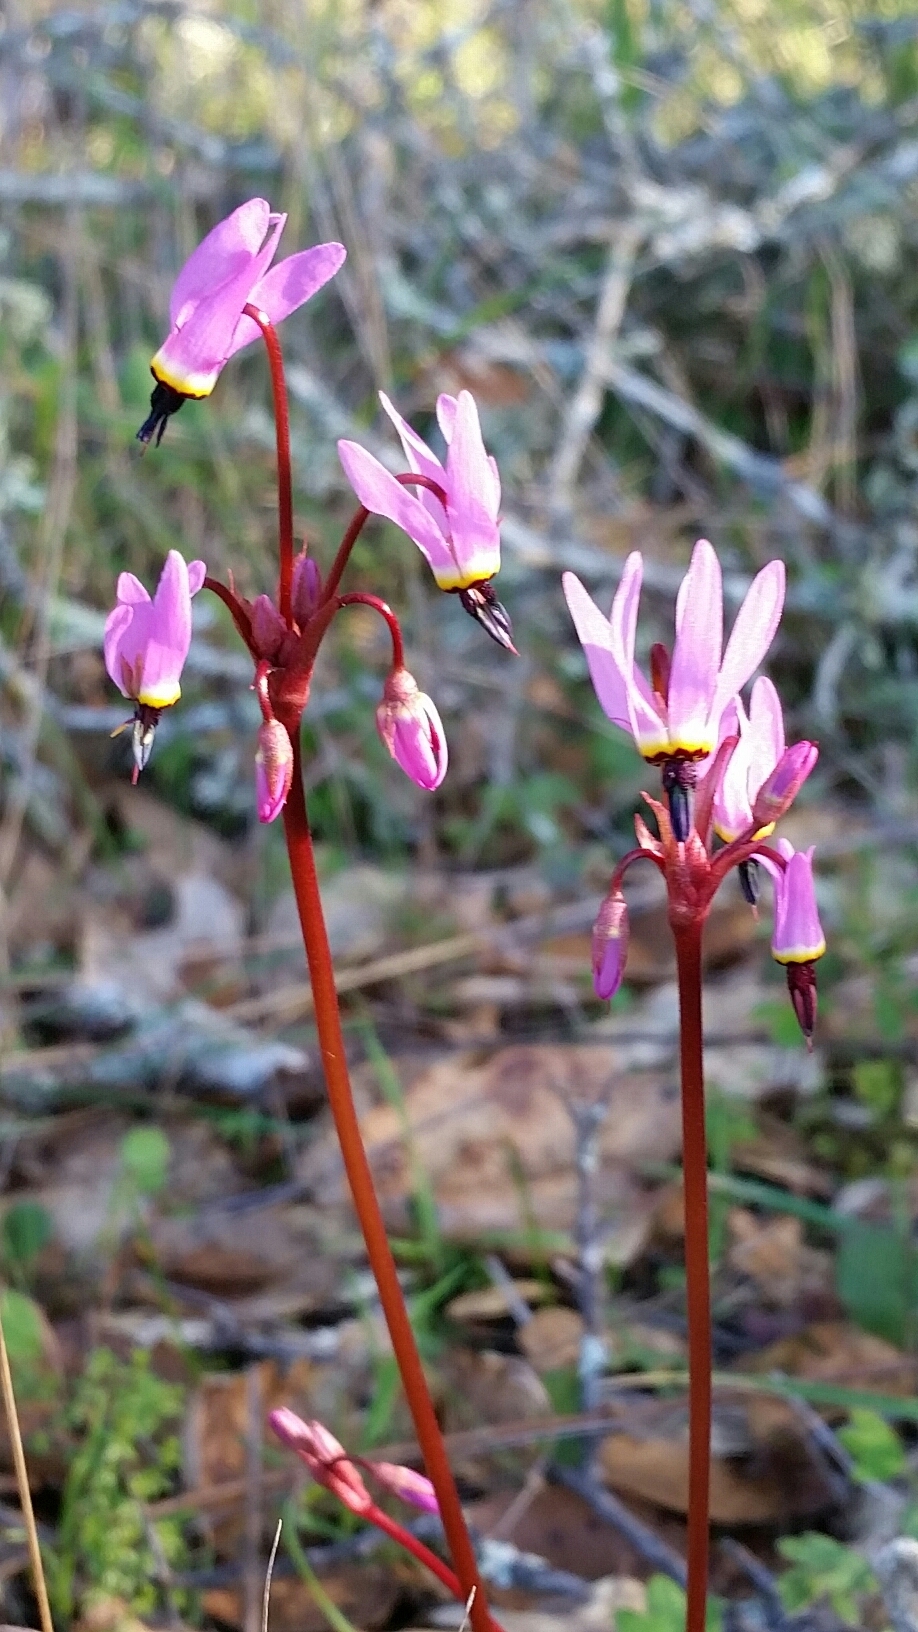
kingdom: Plantae
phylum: Tracheophyta
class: Magnoliopsida
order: Ericales
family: Primulaceae
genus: Dodecatheon
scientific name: Dodecatheon hendersonii
